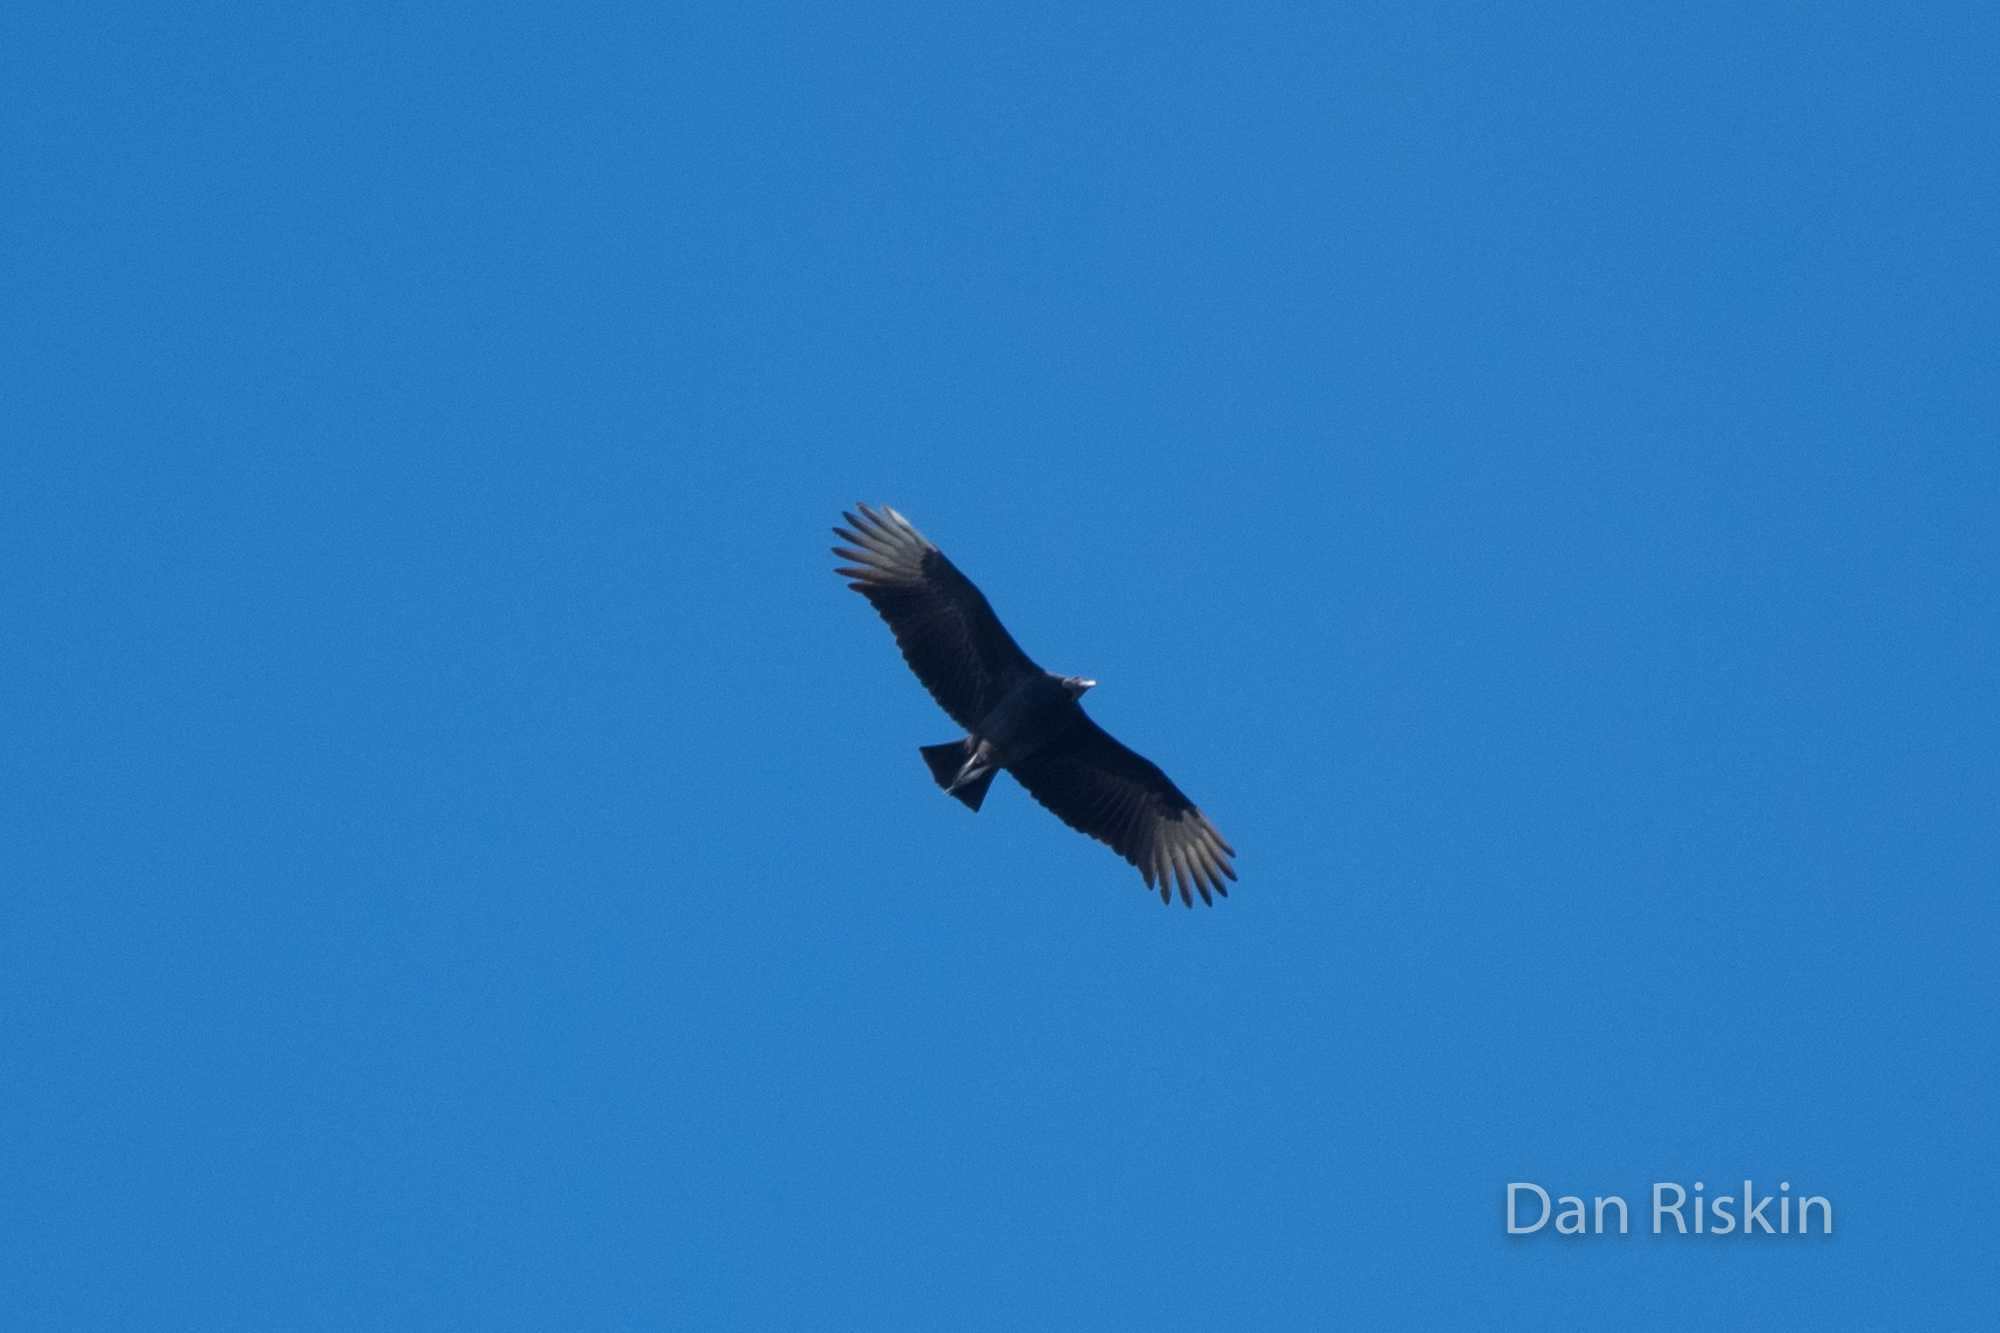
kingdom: Animalia
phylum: Chordata
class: Aves
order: Accipitriformes
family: Cathartidae
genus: Coragyps
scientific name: Coragyps atratus
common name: Black vulture
